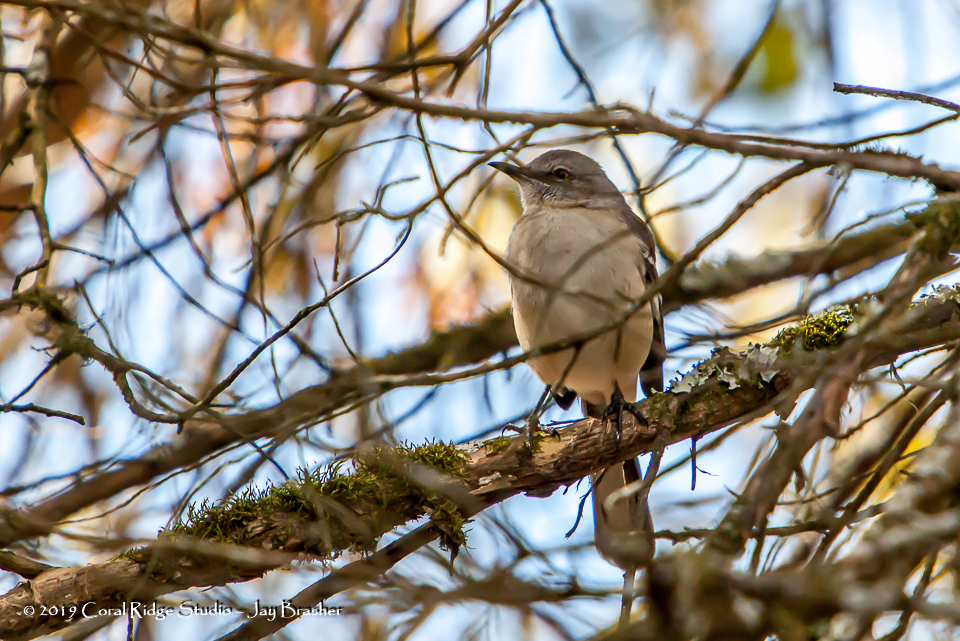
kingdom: Animalia
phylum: Chordata
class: Aves
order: Passeriformes
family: Mimidae
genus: Mimus
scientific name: Mimus polyglottos
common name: Northern mockingbird
